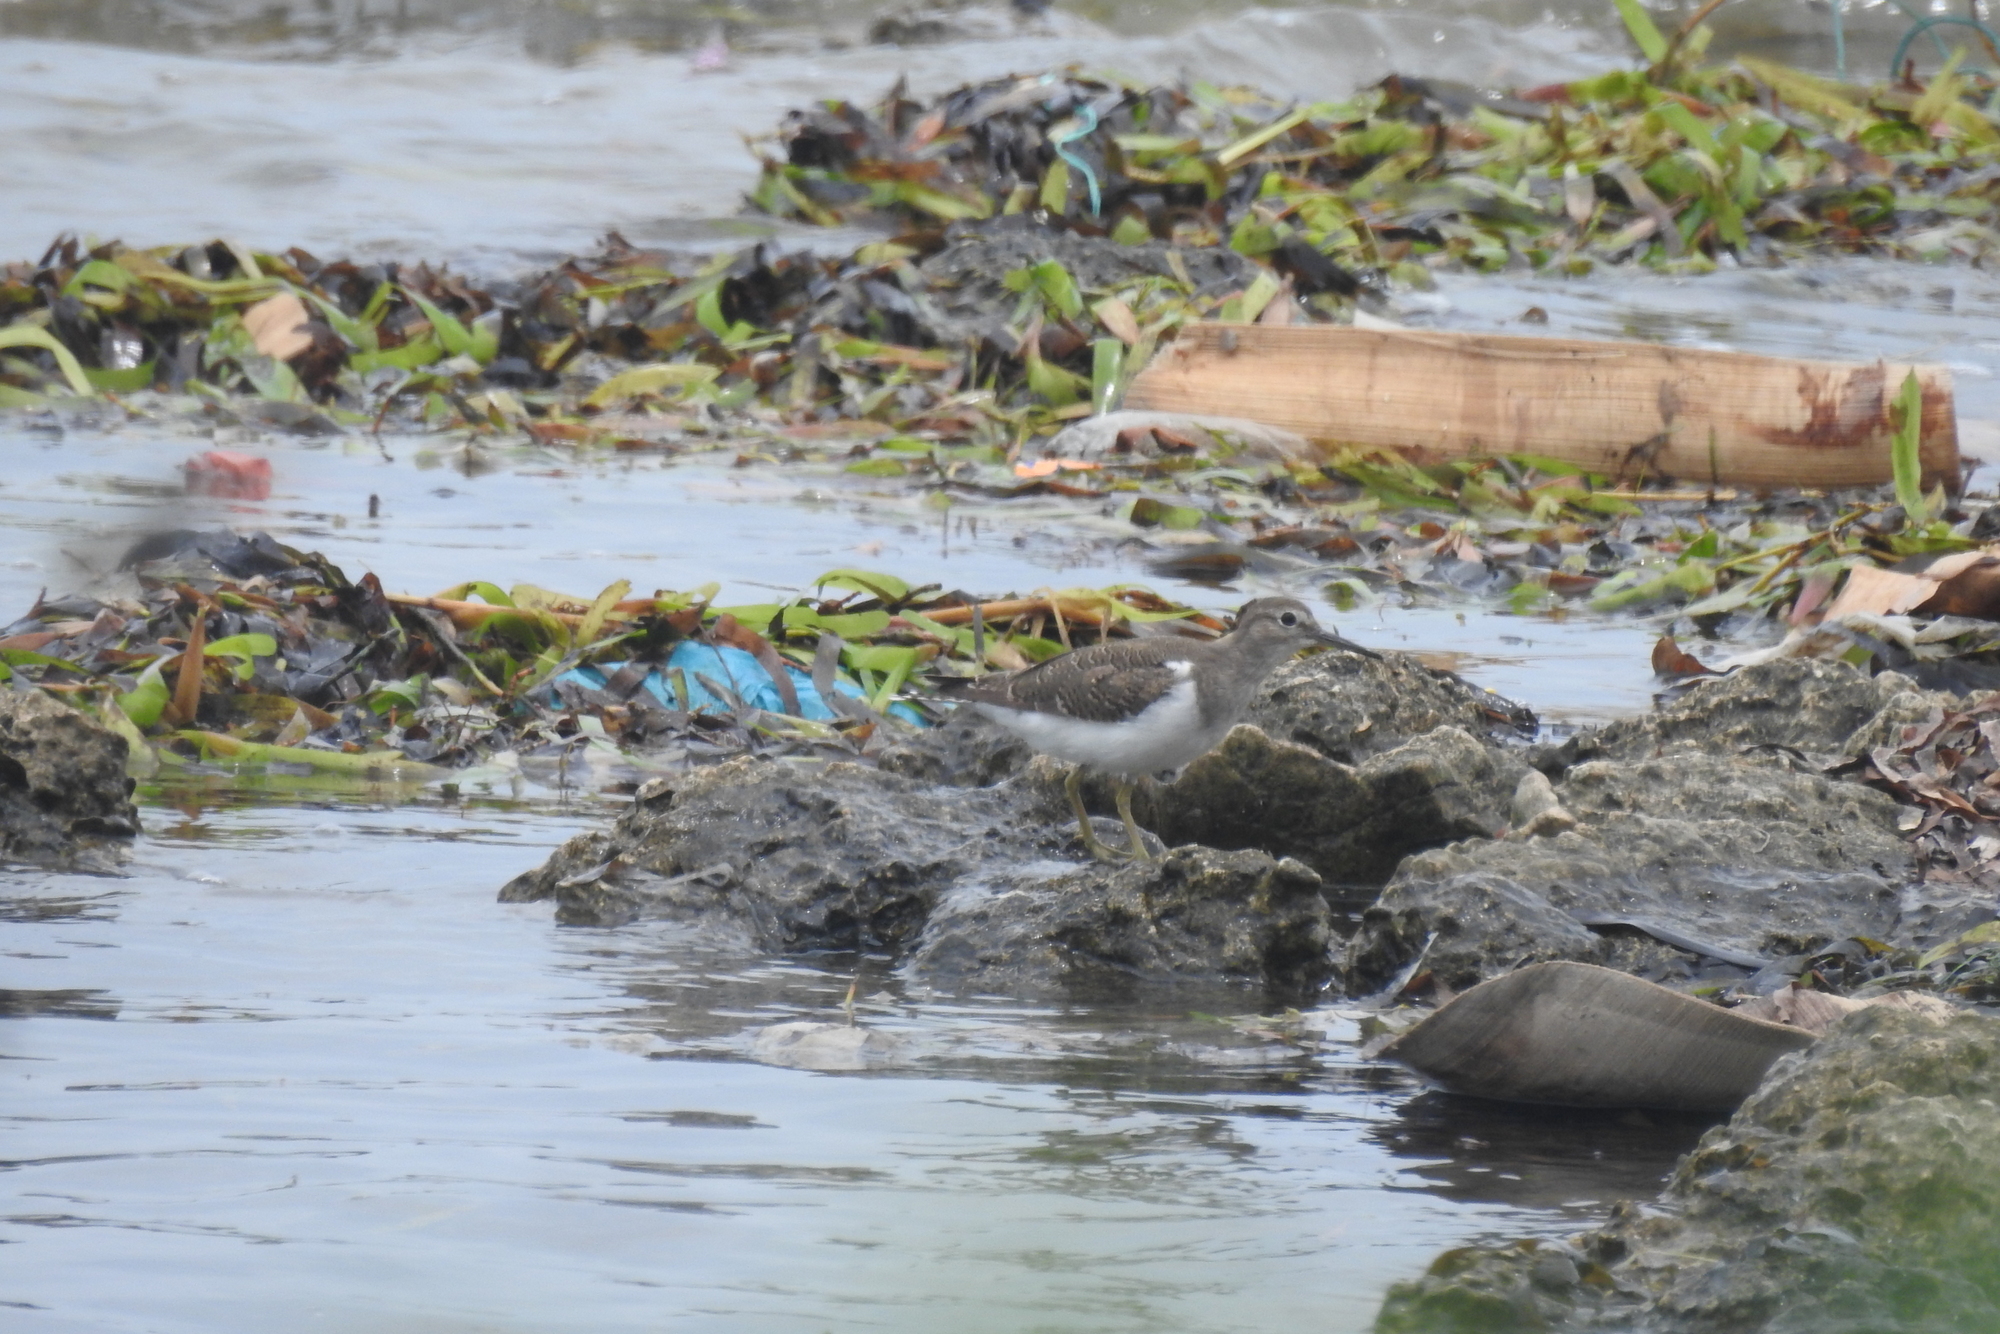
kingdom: Animalia
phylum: Chordata
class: Aves
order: Charadriiformes
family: Scolopacidae
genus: Actitis
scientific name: Actitis hypoleucos
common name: Common sandpiper
